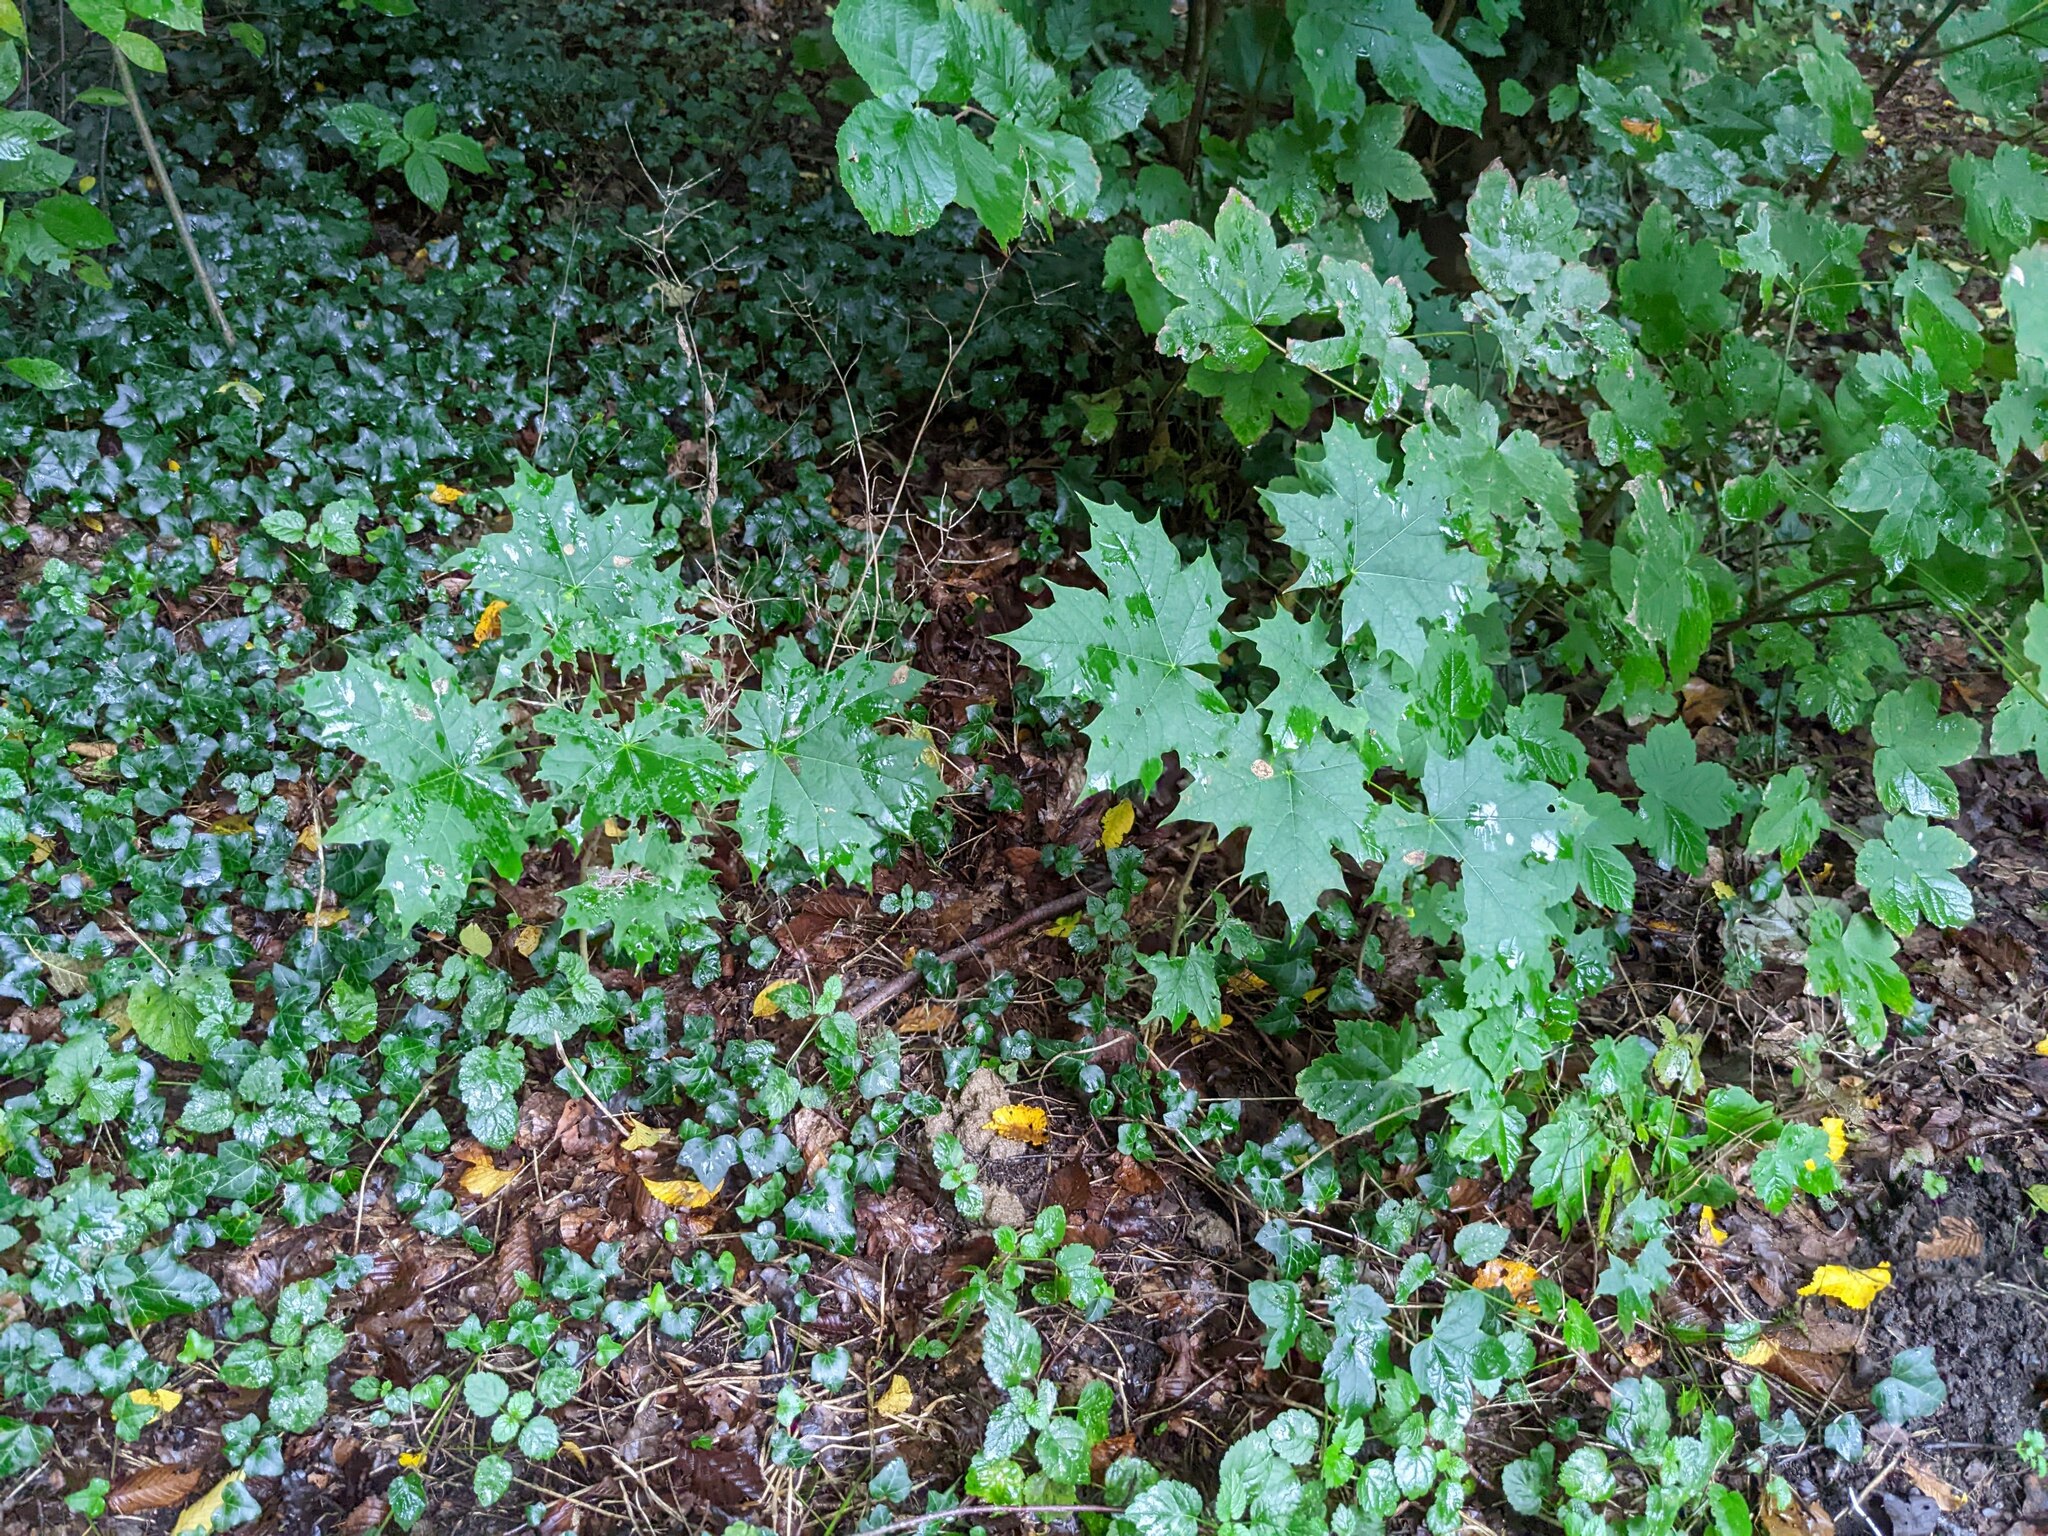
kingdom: Plantae
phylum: Tracheophyta
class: Magnoliopsida
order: Sapindales
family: Sapindaceae
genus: Acer
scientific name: Acer platanoides
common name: Norway maple
